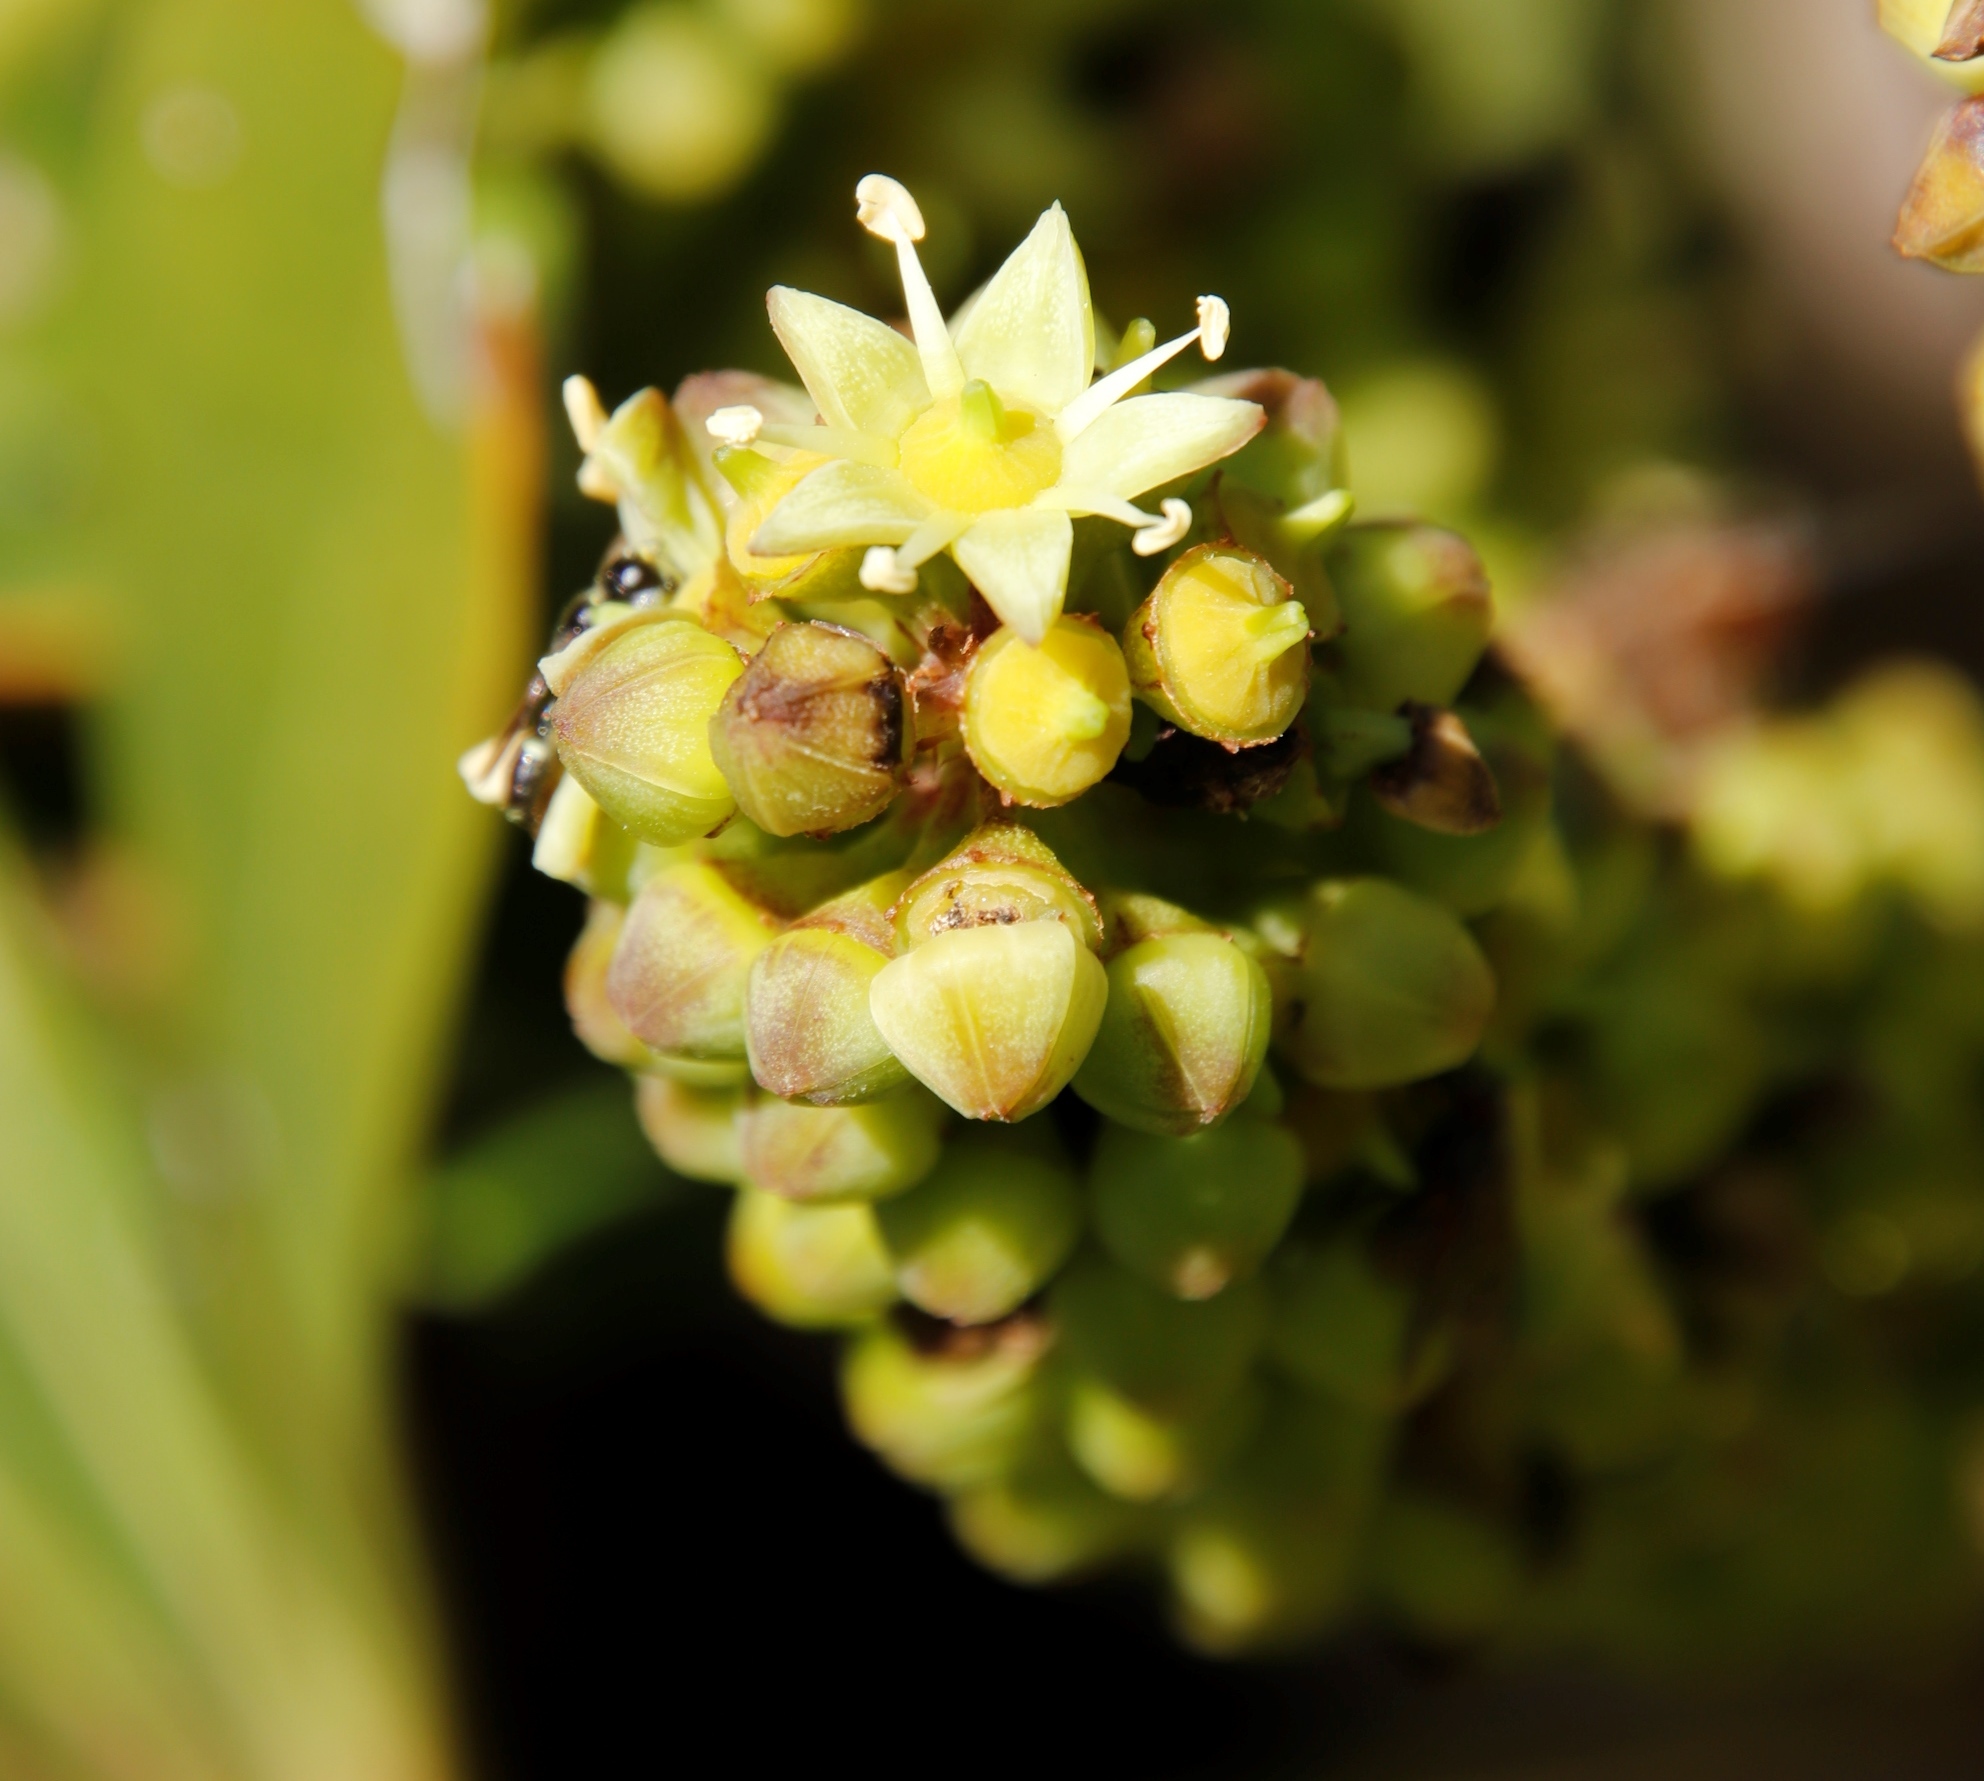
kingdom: Plantae
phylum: Tracheophyta
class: Magnoliopsida
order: Apiales
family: Araliaceae
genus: Cussonia
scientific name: Cussonia thyrsiflora
